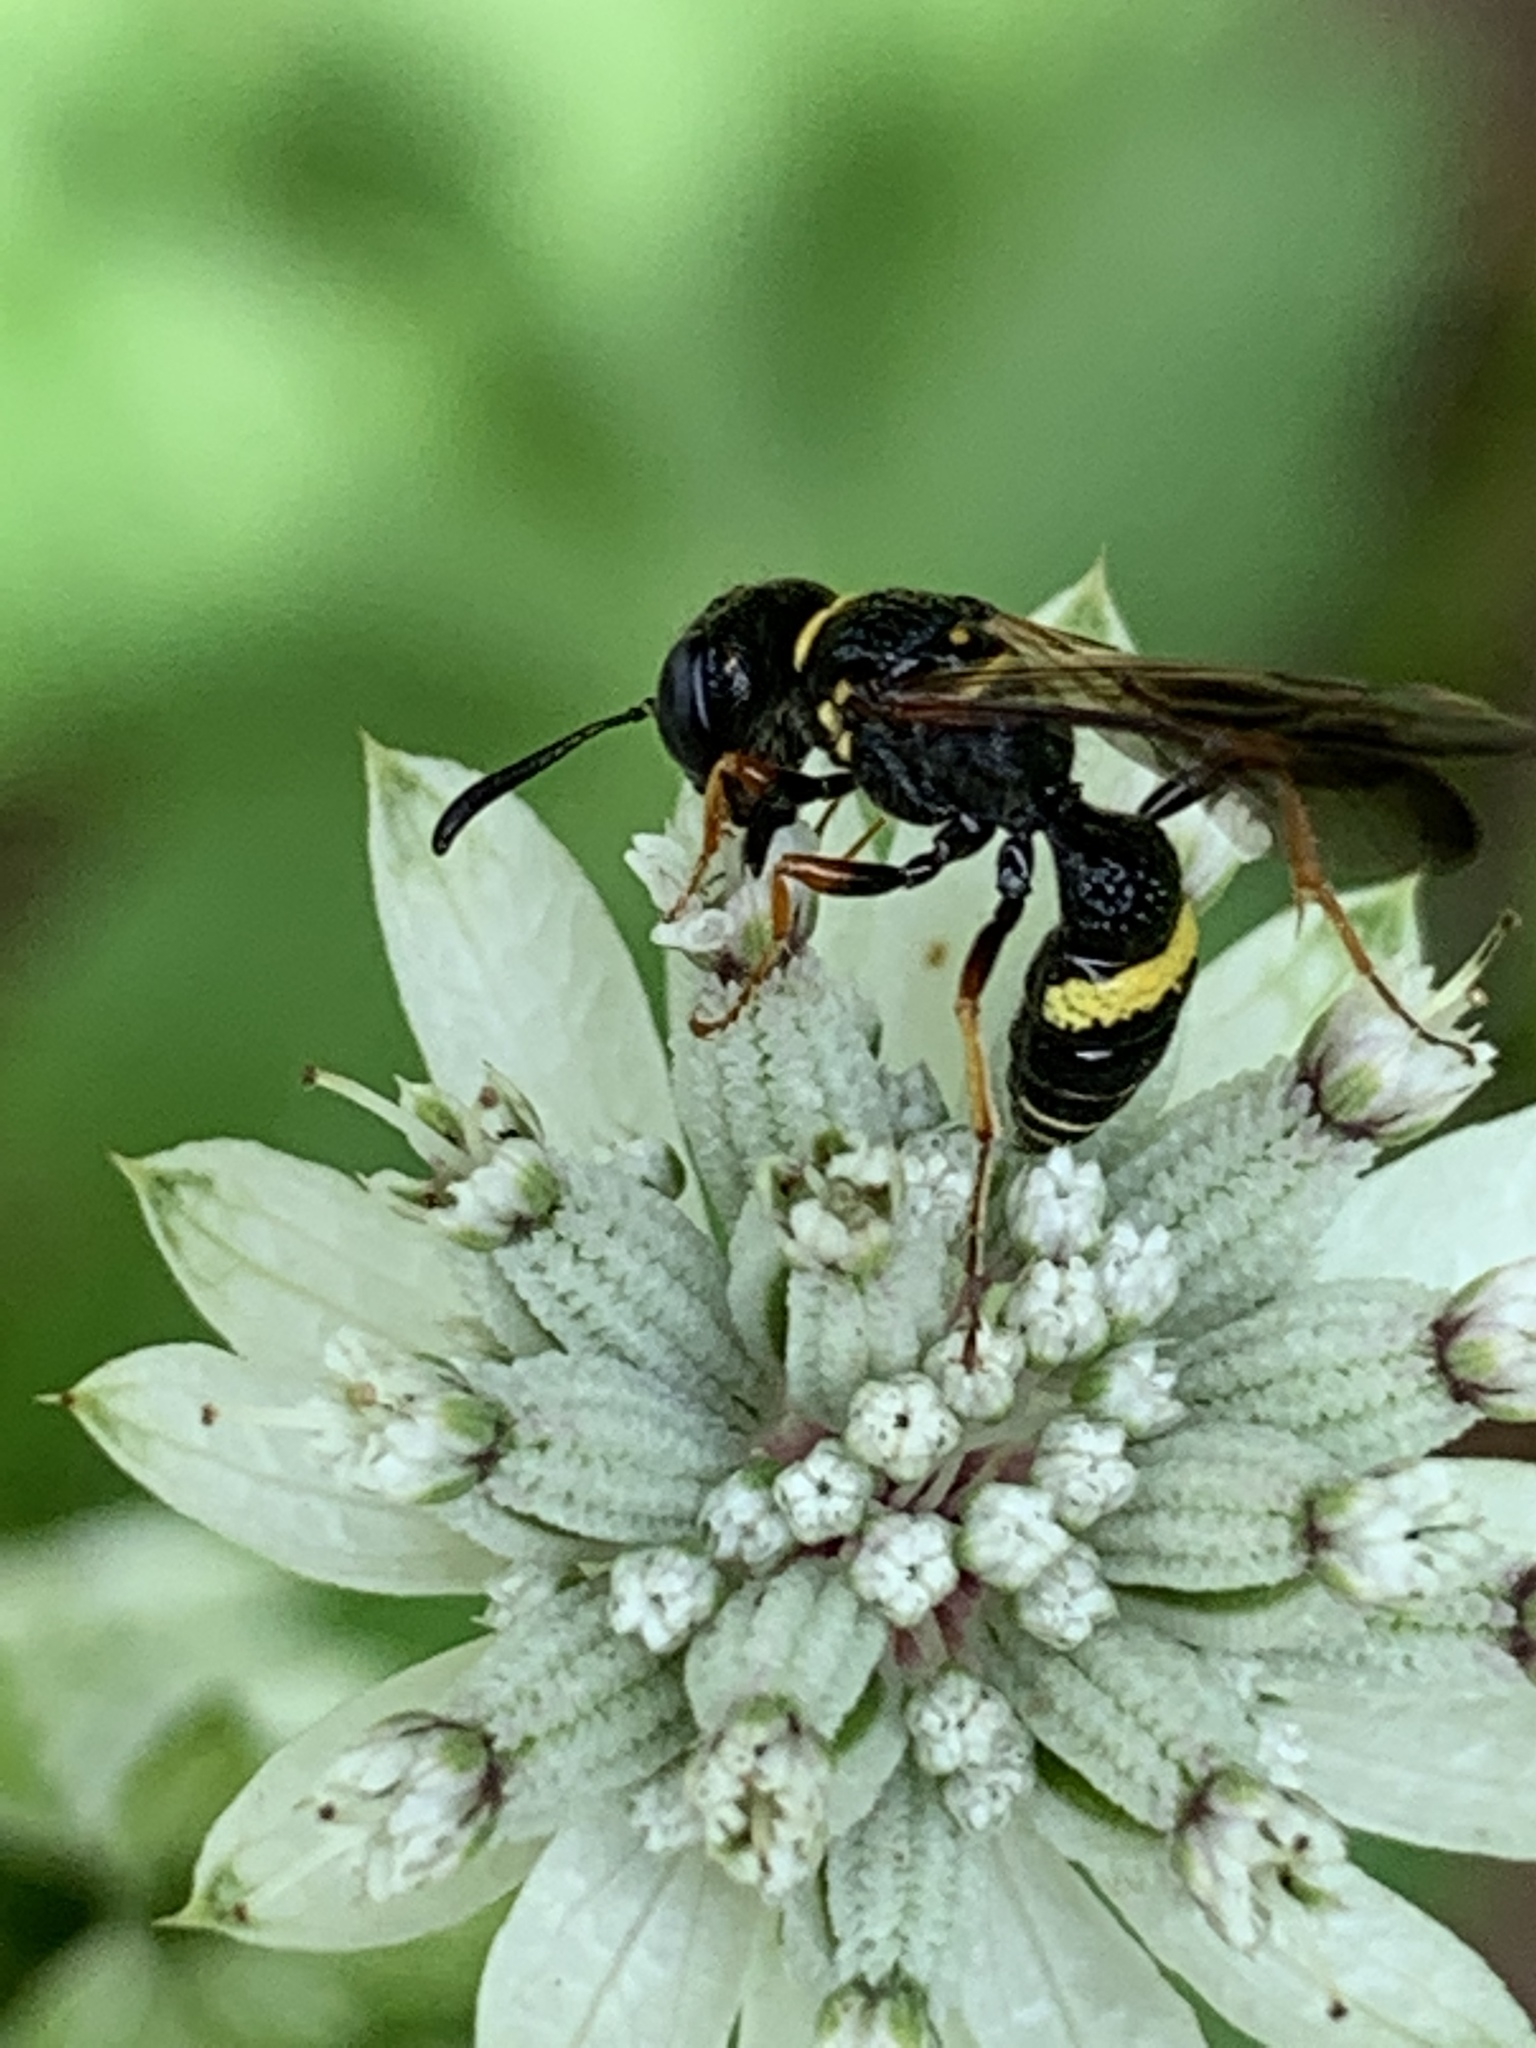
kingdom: Animalia
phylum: Arthropoda
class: Insecta
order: Hymenoptera
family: Crabronidae
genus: Philanthus
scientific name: Philanthus gibbosus
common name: Humped beewolf
